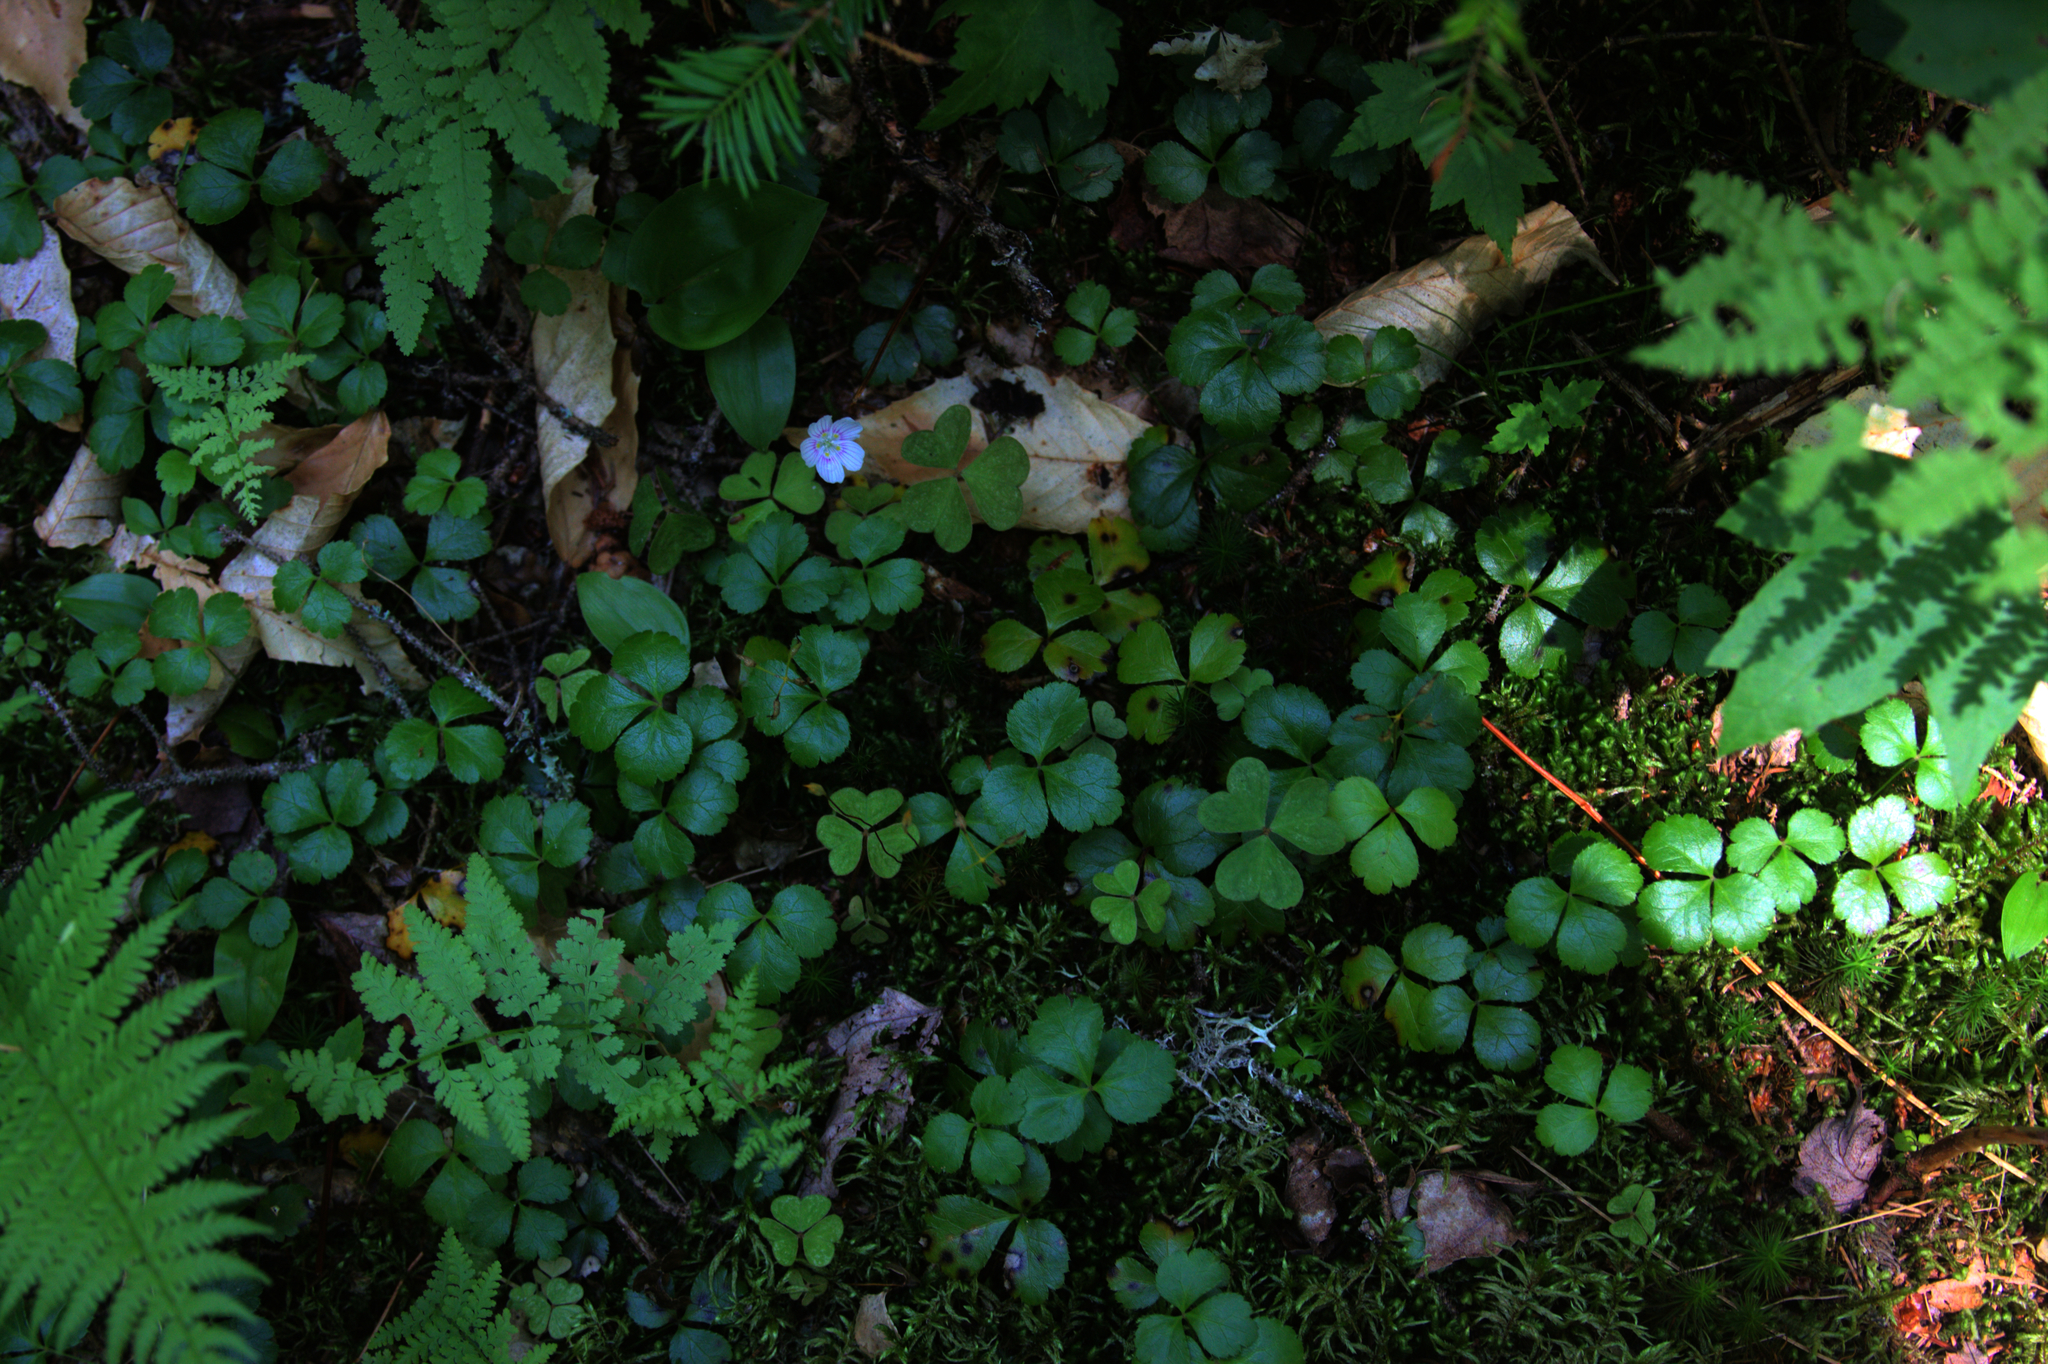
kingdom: Plantae
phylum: Tracheophyta
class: Magnoliopsida
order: Oxalidales
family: Oxalidaceae
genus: Oxalis
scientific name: Oxalis montana
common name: American wood-sorrel
